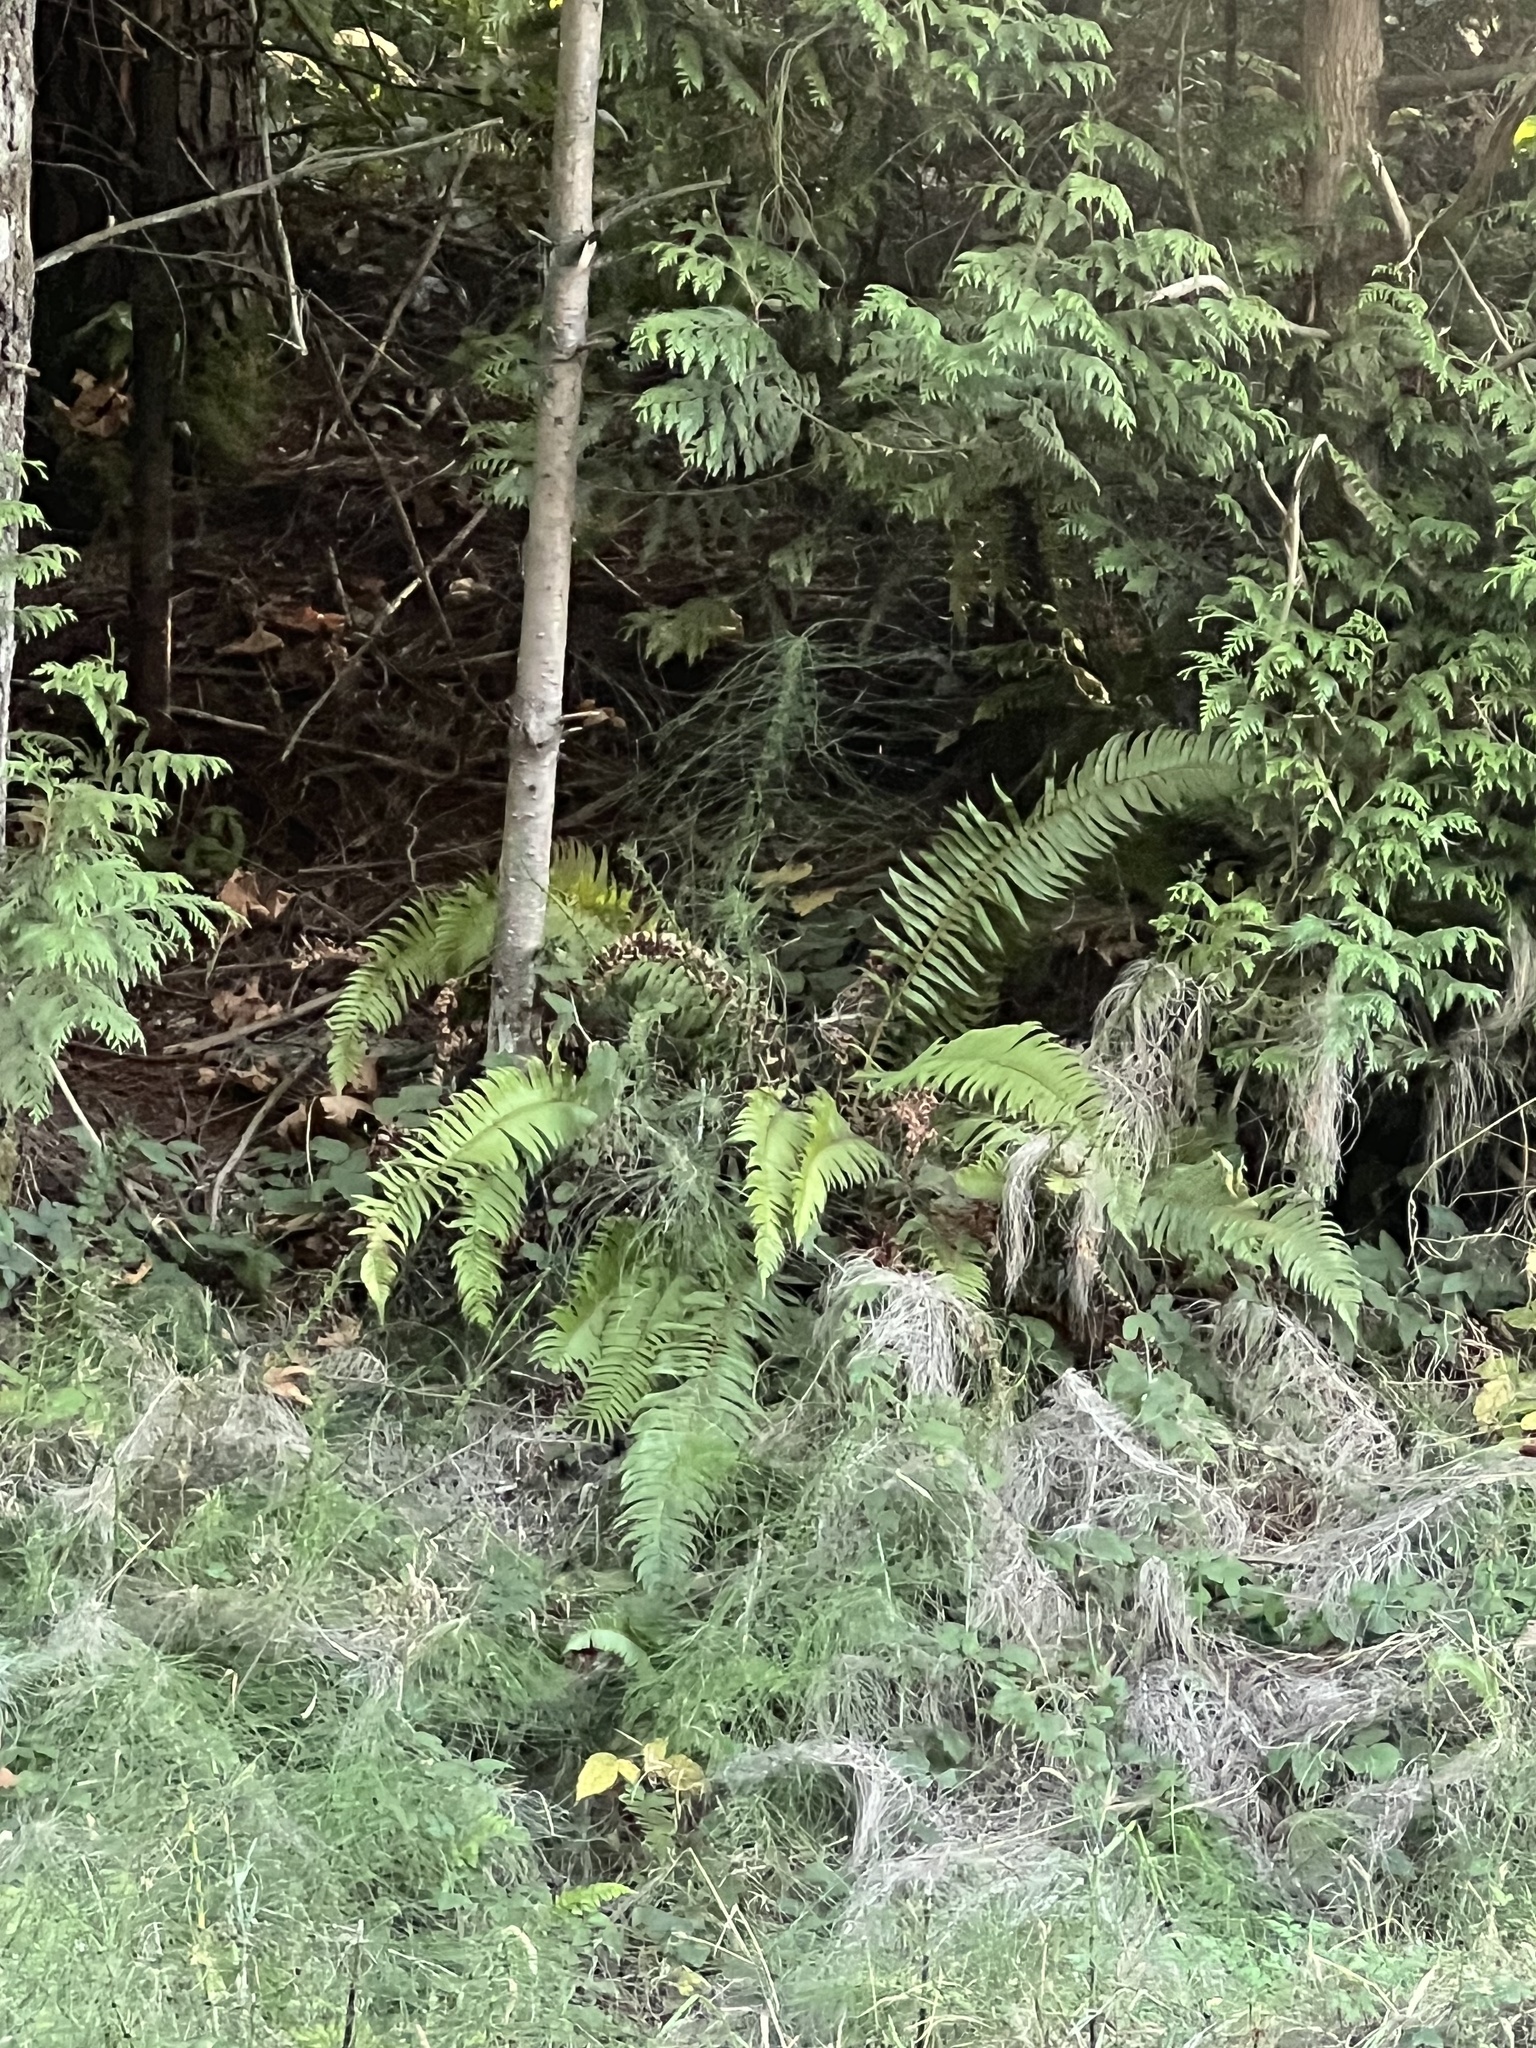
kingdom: Plantae
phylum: Tracheophyta
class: Polypodiopsida
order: Polypodiales
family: Dryopteridaceae
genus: Polystichum
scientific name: Polystichum munitum
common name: Western sword-fern
